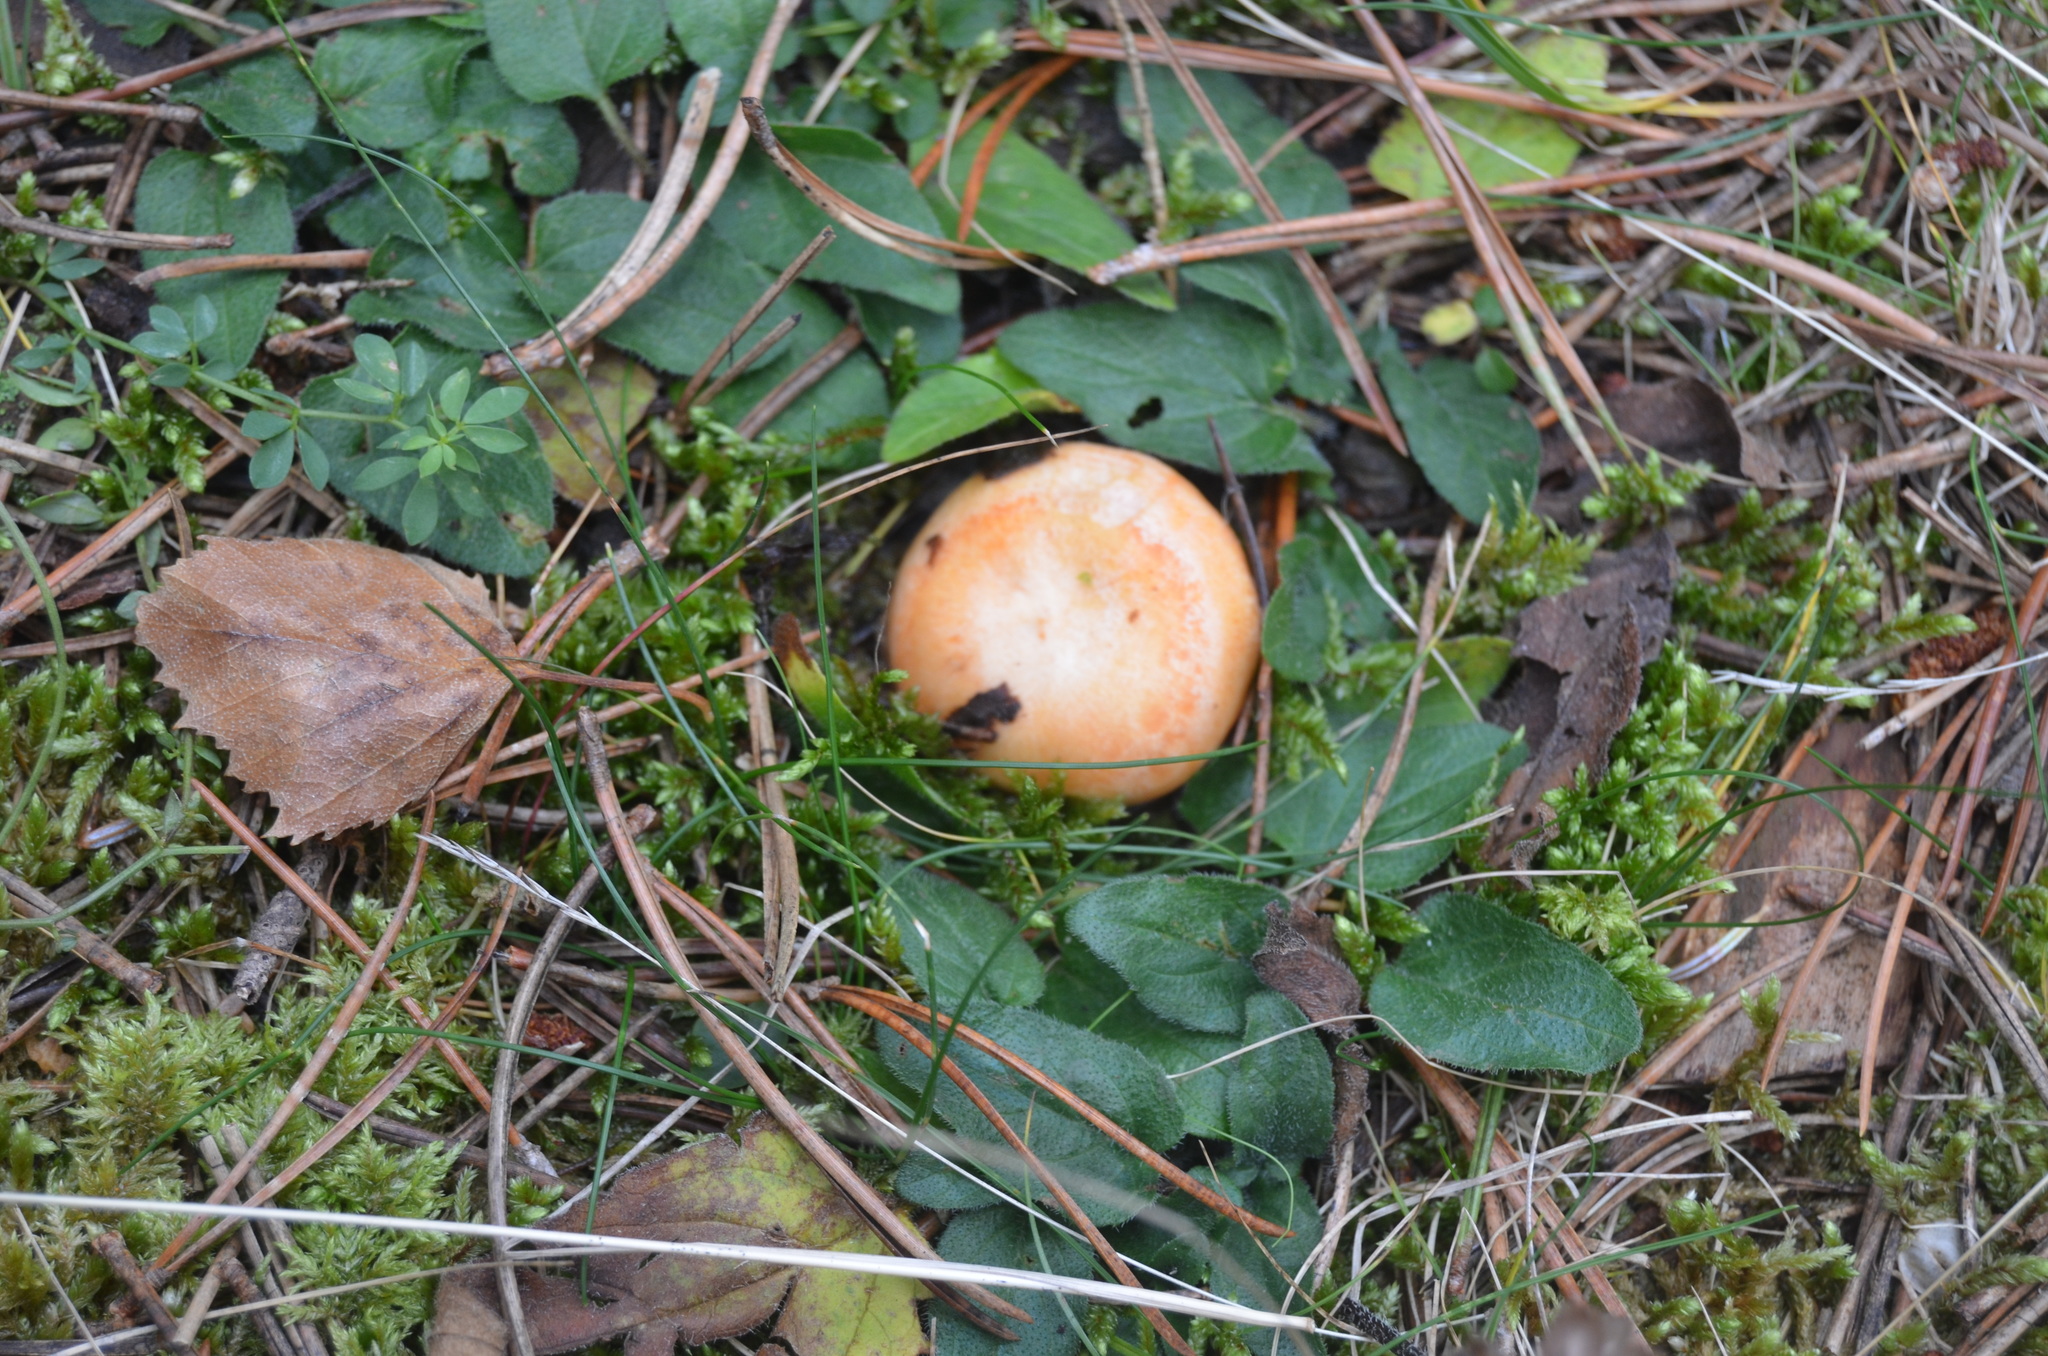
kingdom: Fungi
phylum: Basidiomycota
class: Agaricomycetes
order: Russulales
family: Russulaceae
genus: Lactarius
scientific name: Lactarius deliciosus
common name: Saffron milk-cap
